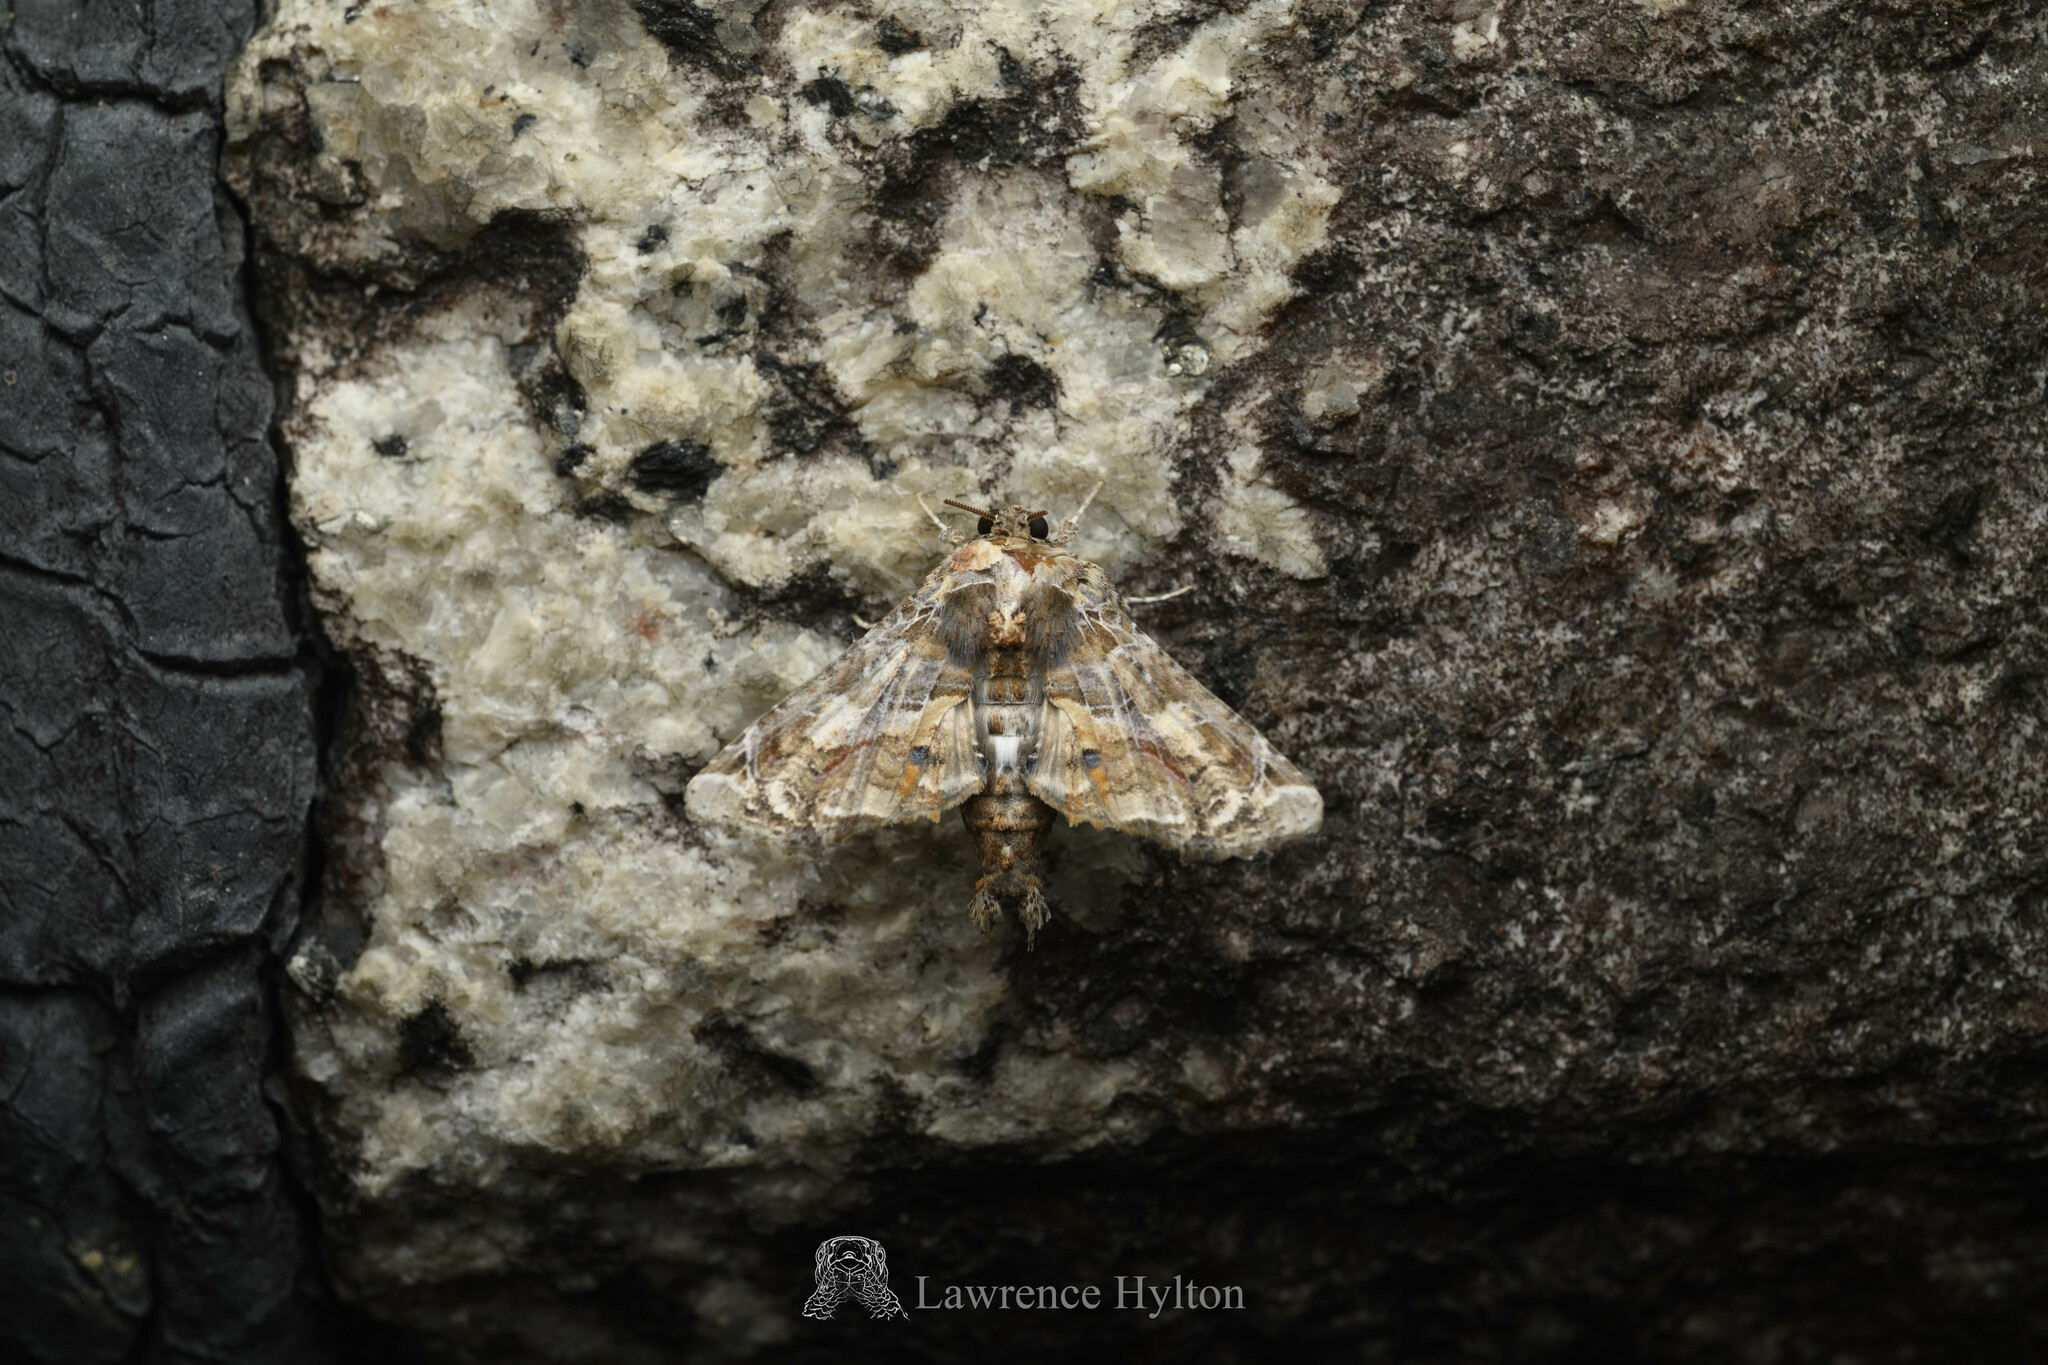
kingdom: Animalia
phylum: Arthropoda
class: Insecta
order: Lepidoptera
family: Euteliidae
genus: Eutelia
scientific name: Eutelia adulatricoides
